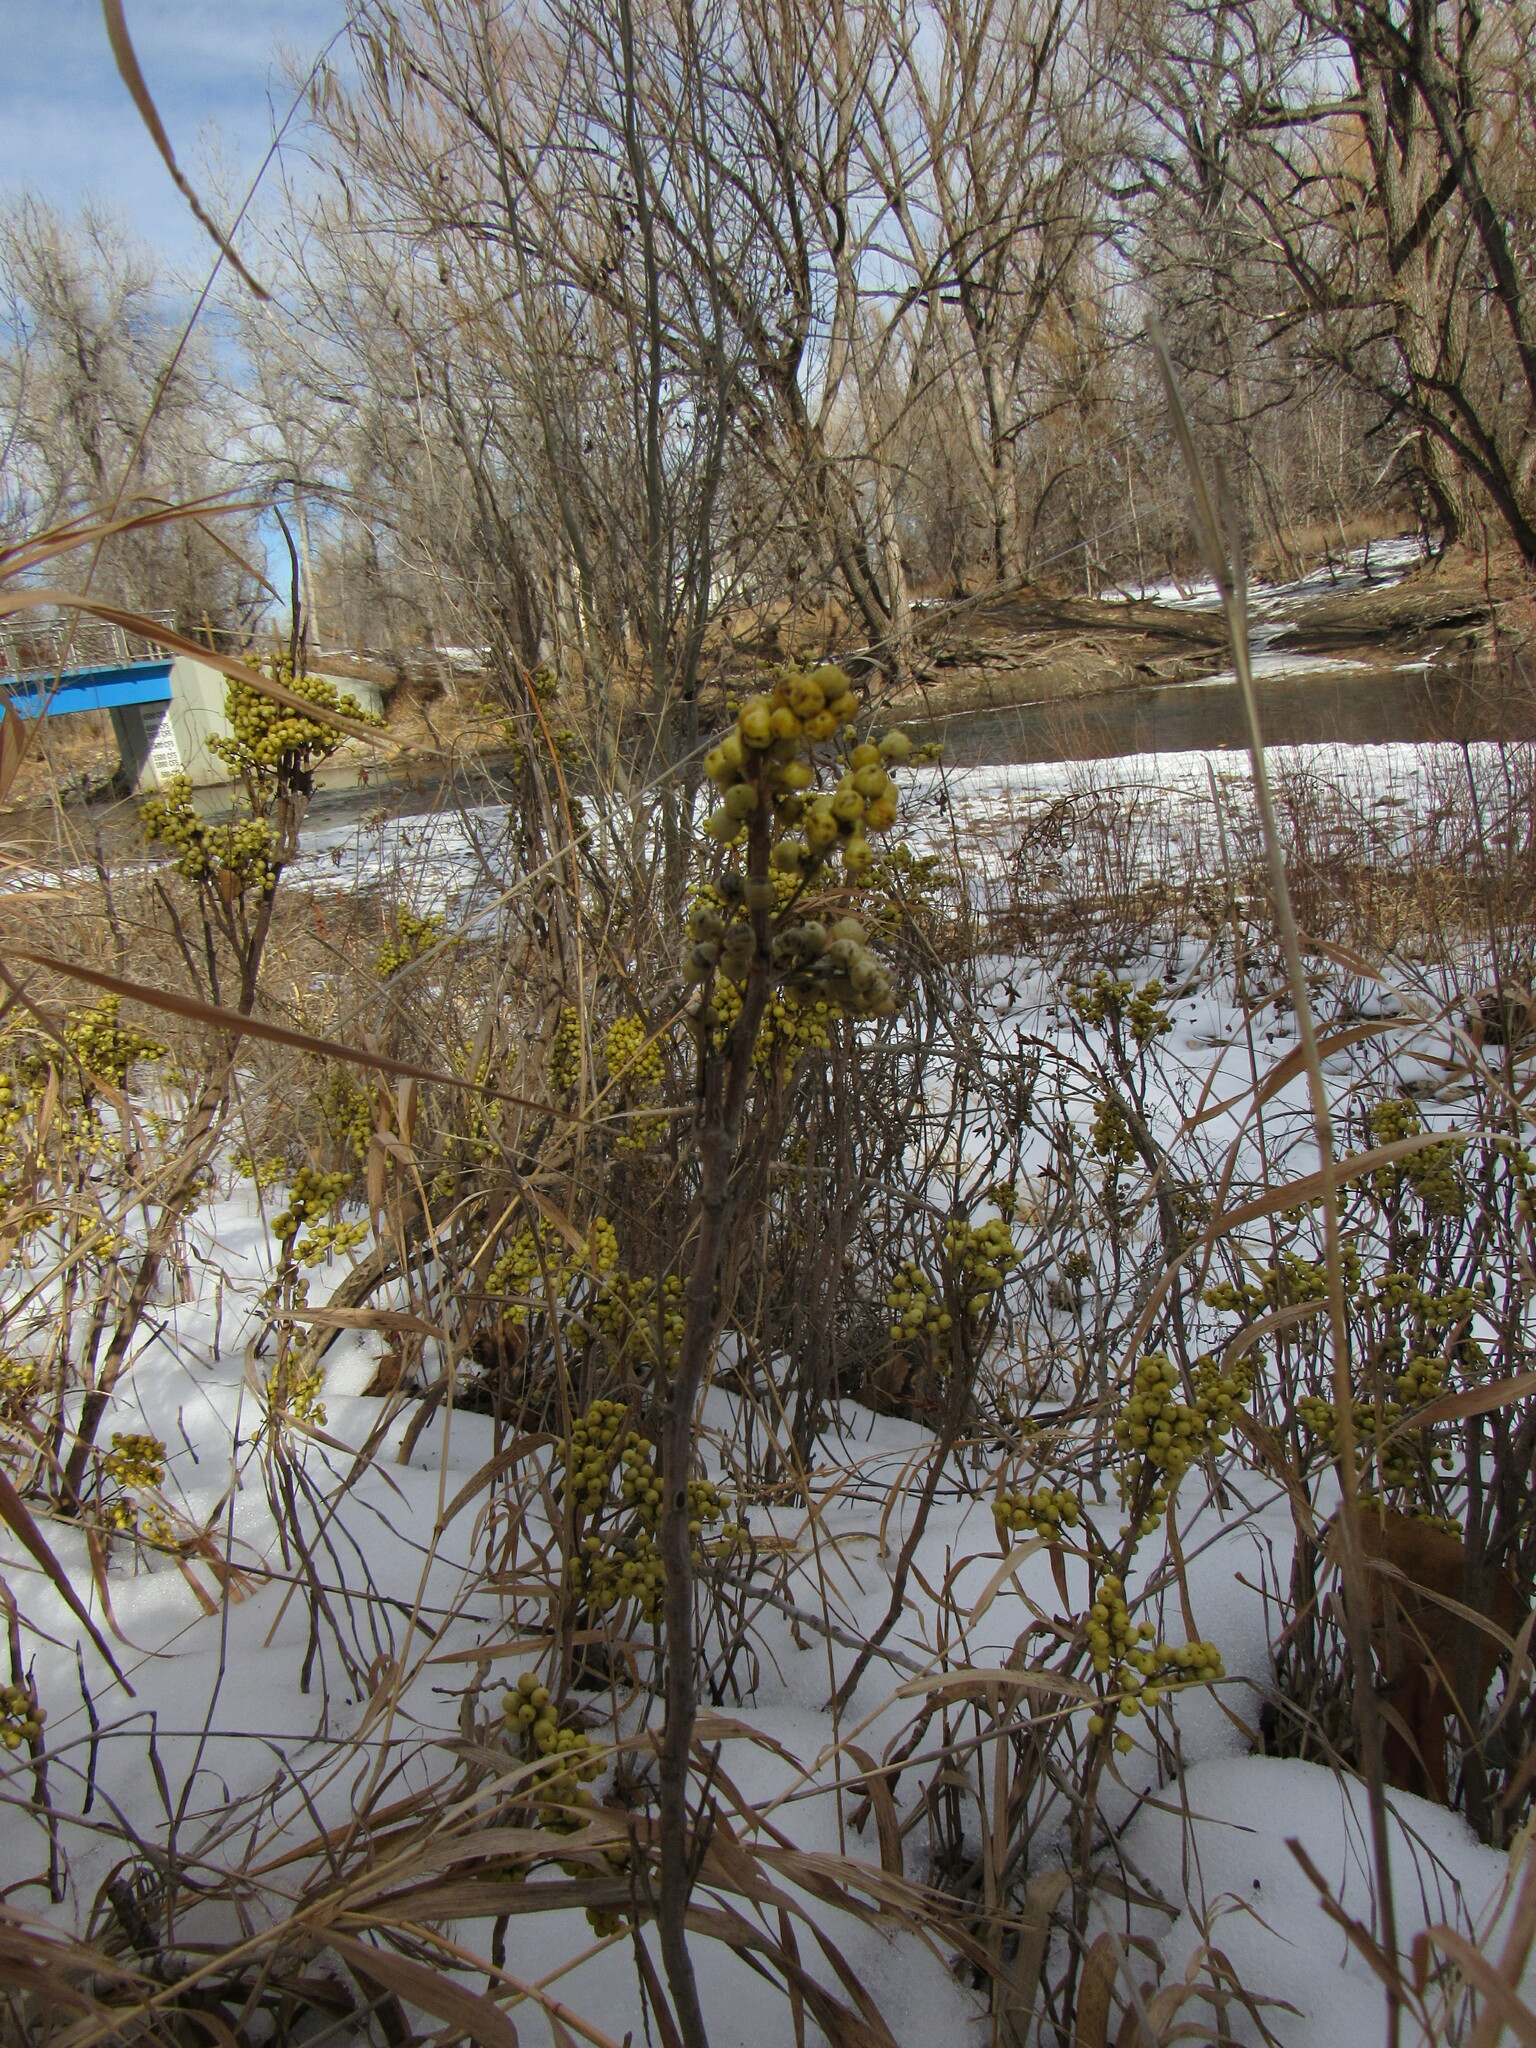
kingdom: Plantae
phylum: Tracheophyta
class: Magnoliopsida
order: Sapindales
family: Anacardiaceae
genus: Toxicodendron
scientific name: Toxicodendron rydbergii
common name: Rydberg's poison-ivy
